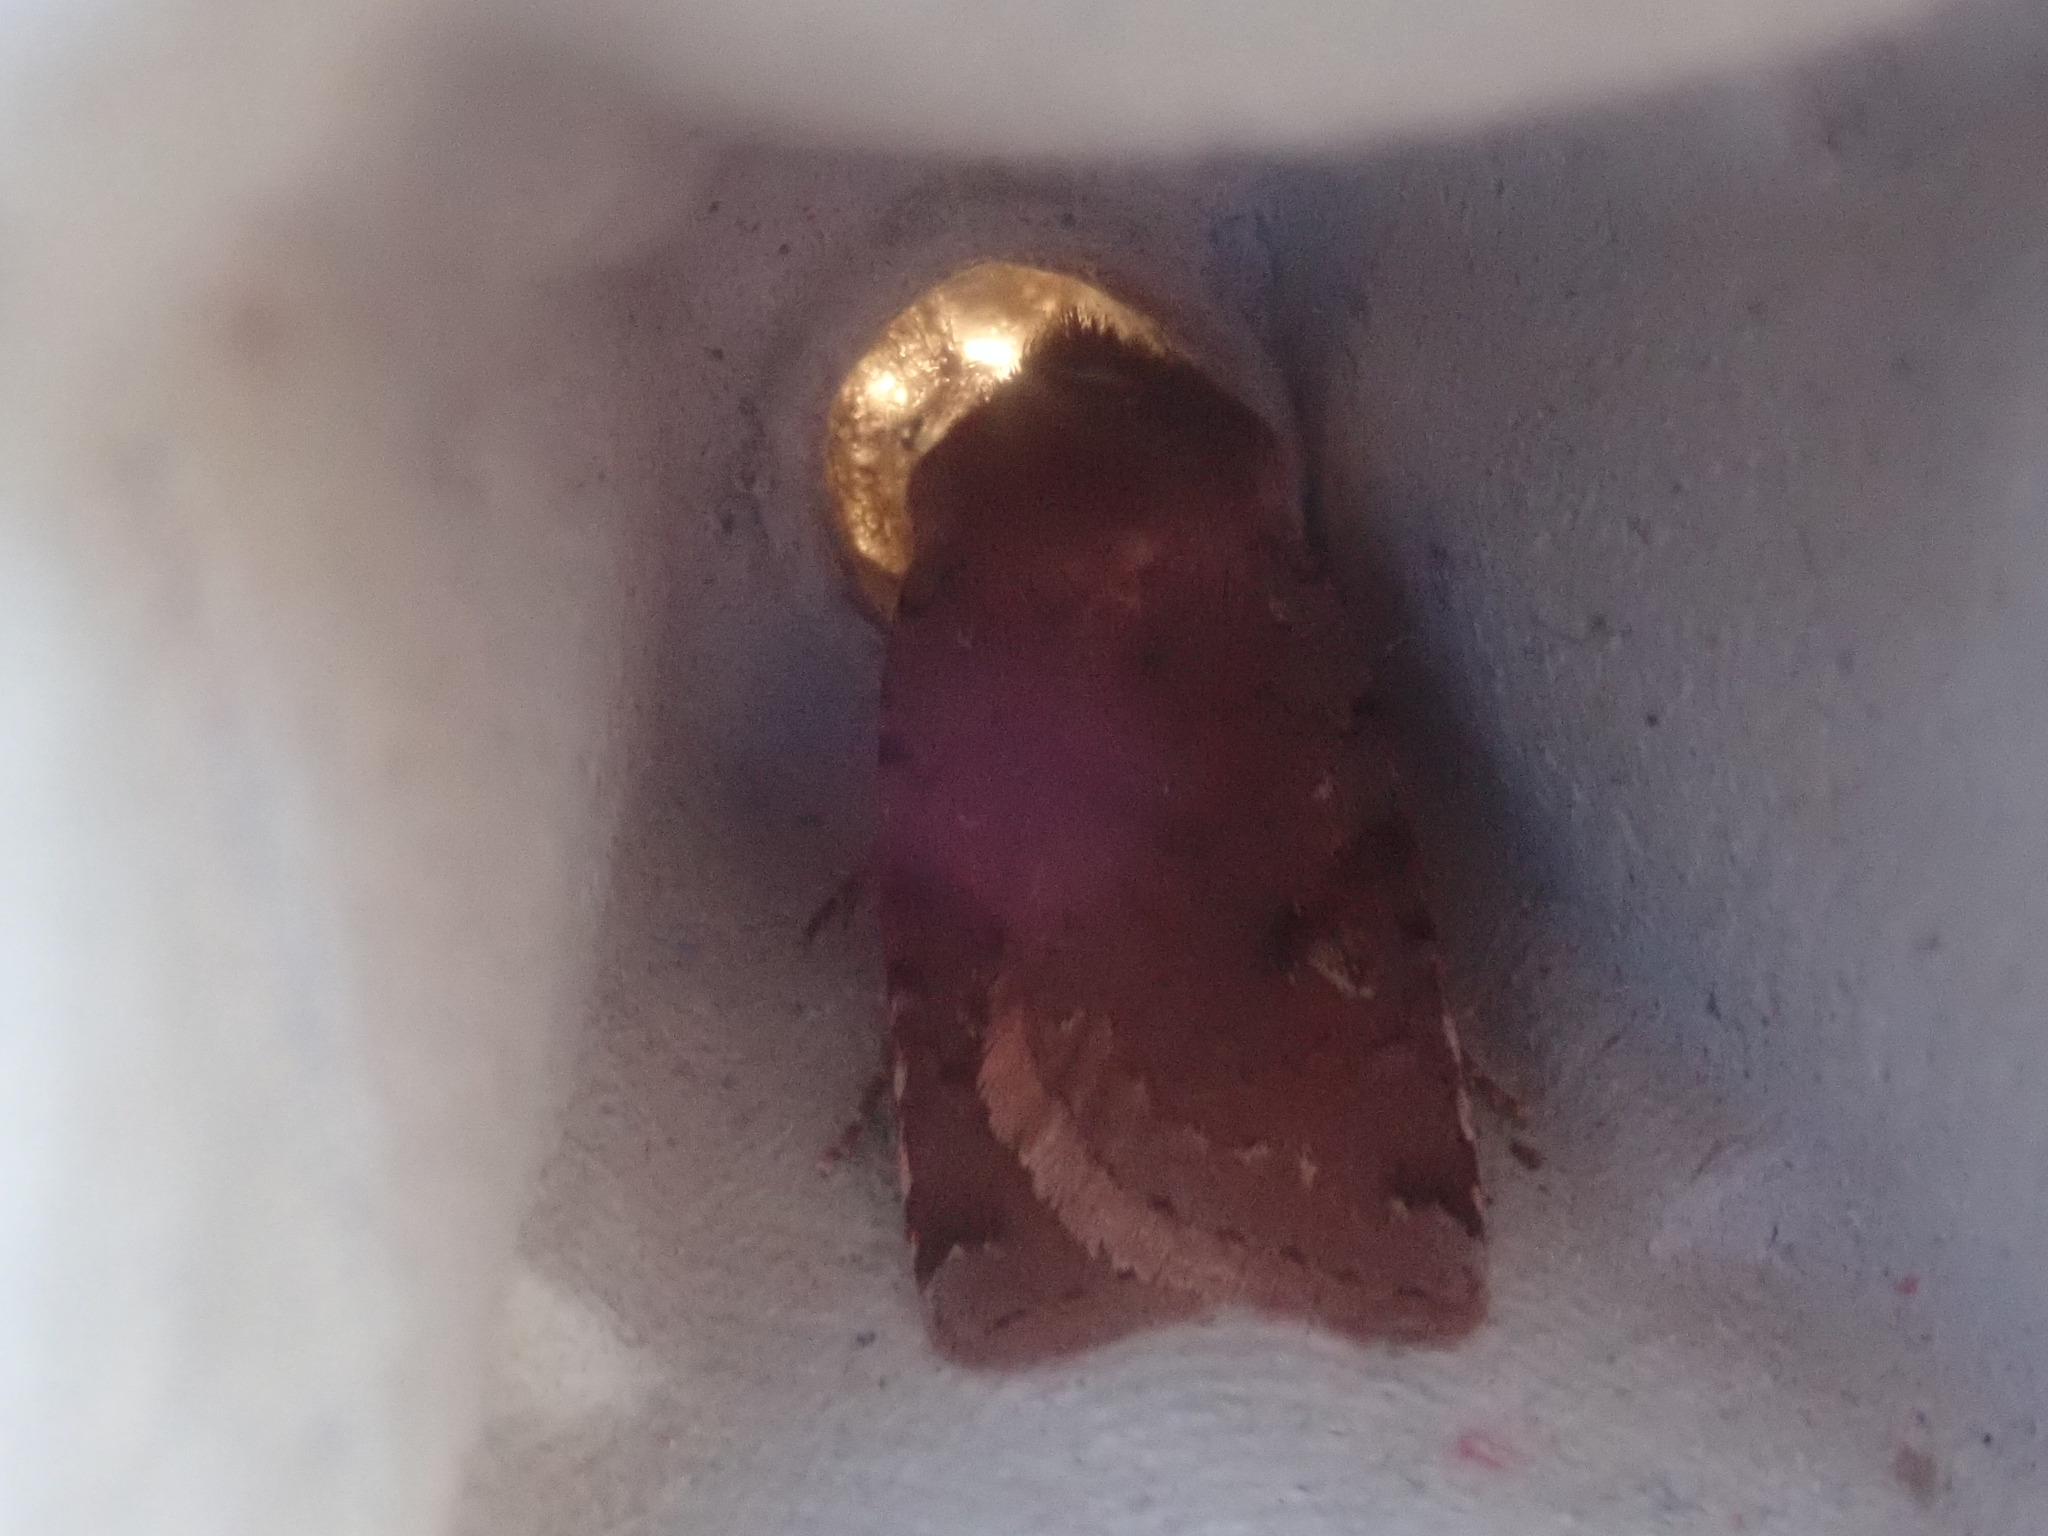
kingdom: Animalia
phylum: Arthropoda
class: Insecta
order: Lepidoptera
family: Noctuidae
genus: Cerastis
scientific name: Cerastis fishii
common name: Fish's dart
